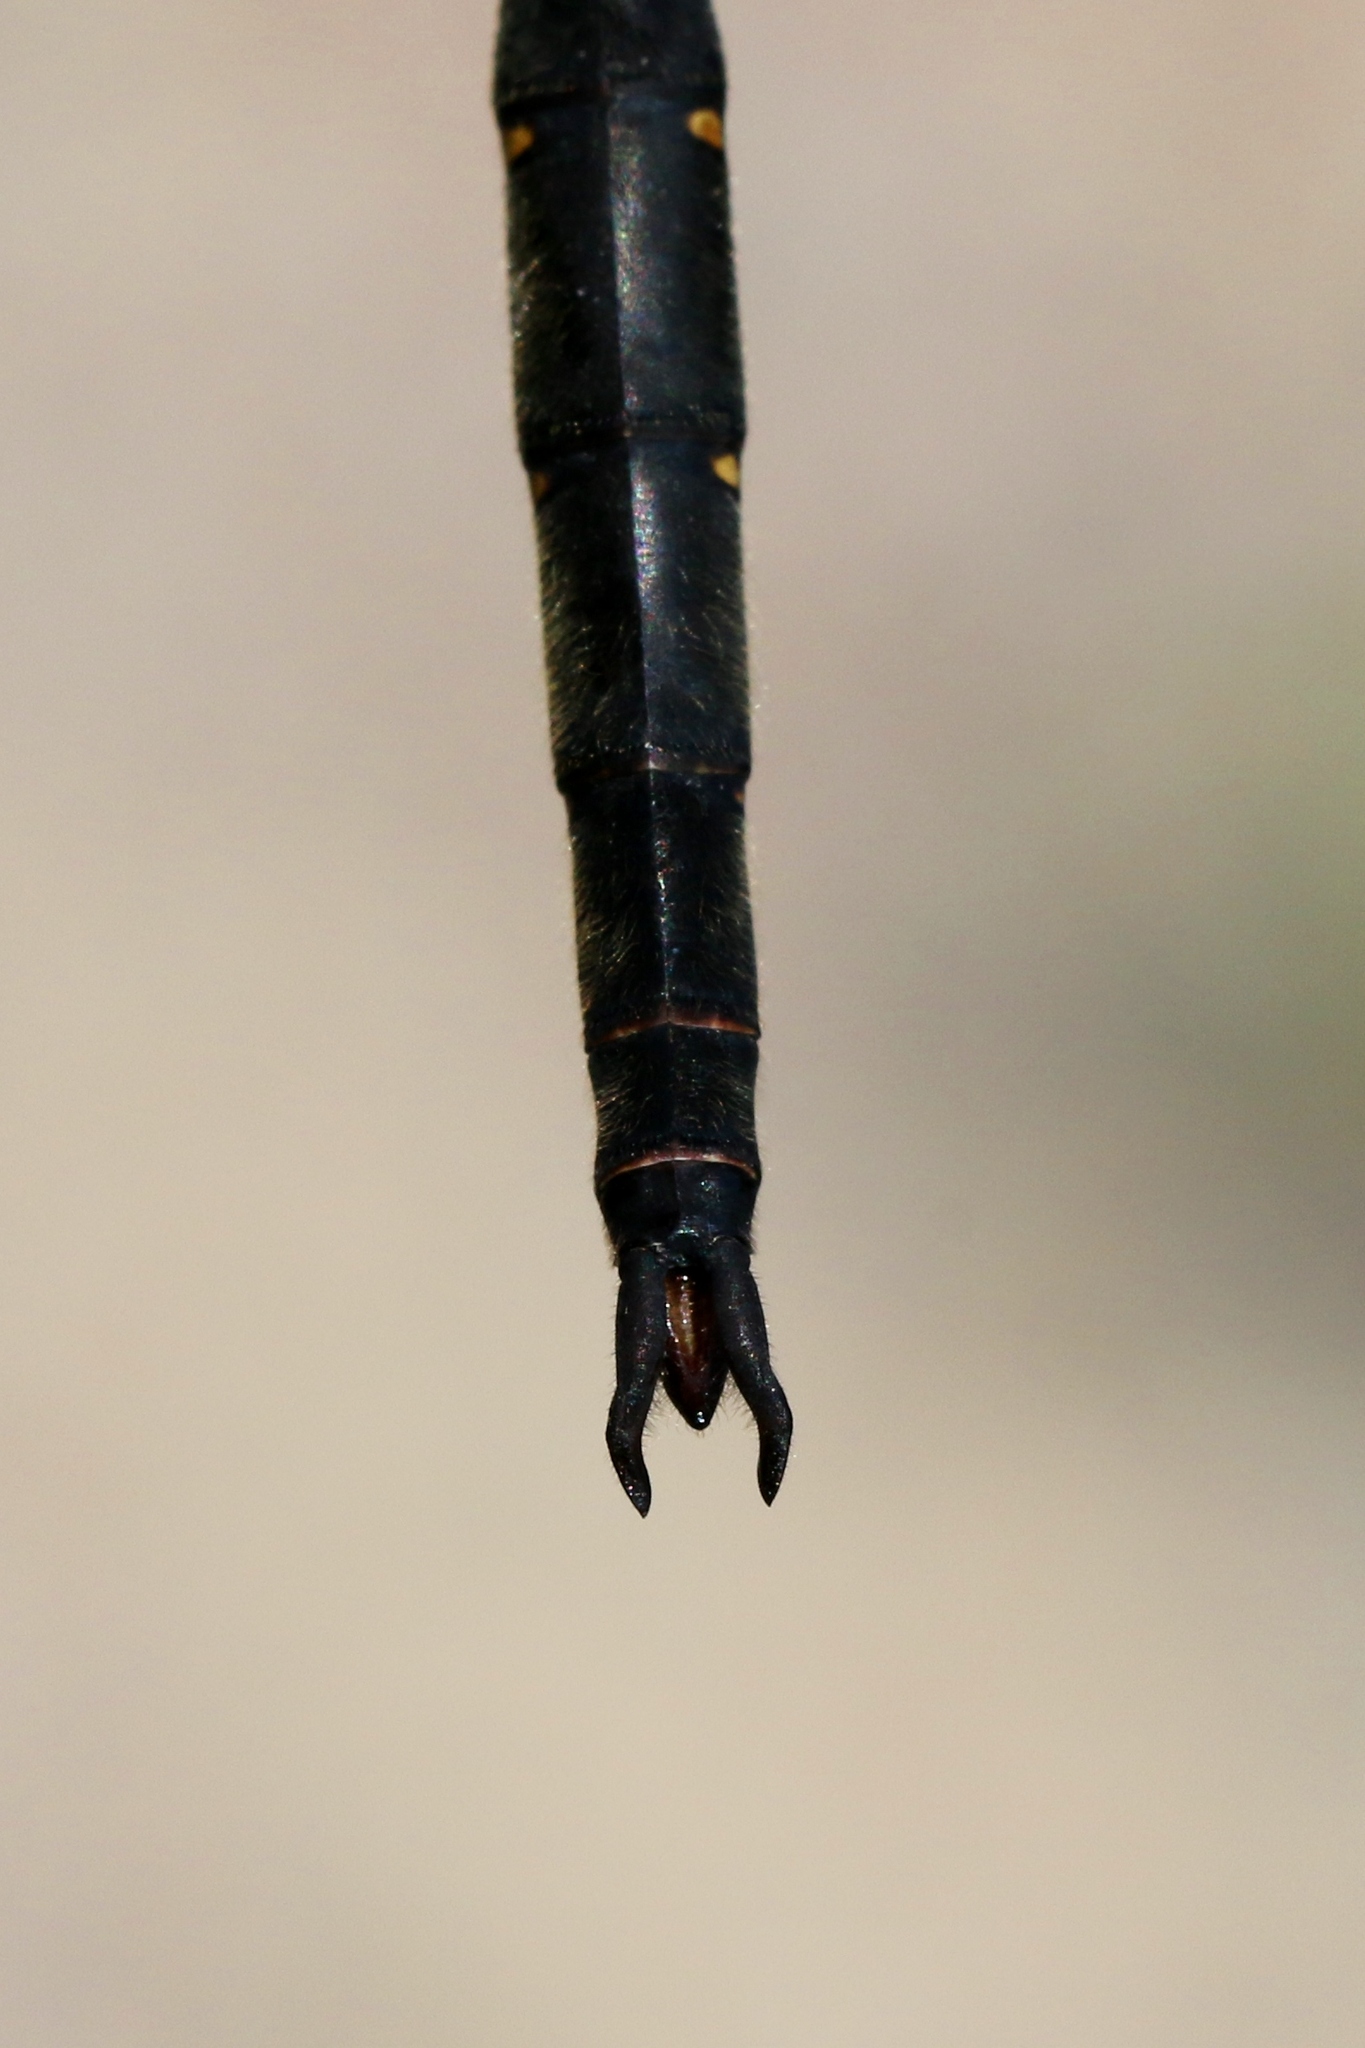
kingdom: Animalia
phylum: Arthropoda
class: Insecta
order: Odonata
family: Corduliidae
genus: Somatochlora
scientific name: Somatochlora forcipata
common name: Forcipate emerald
